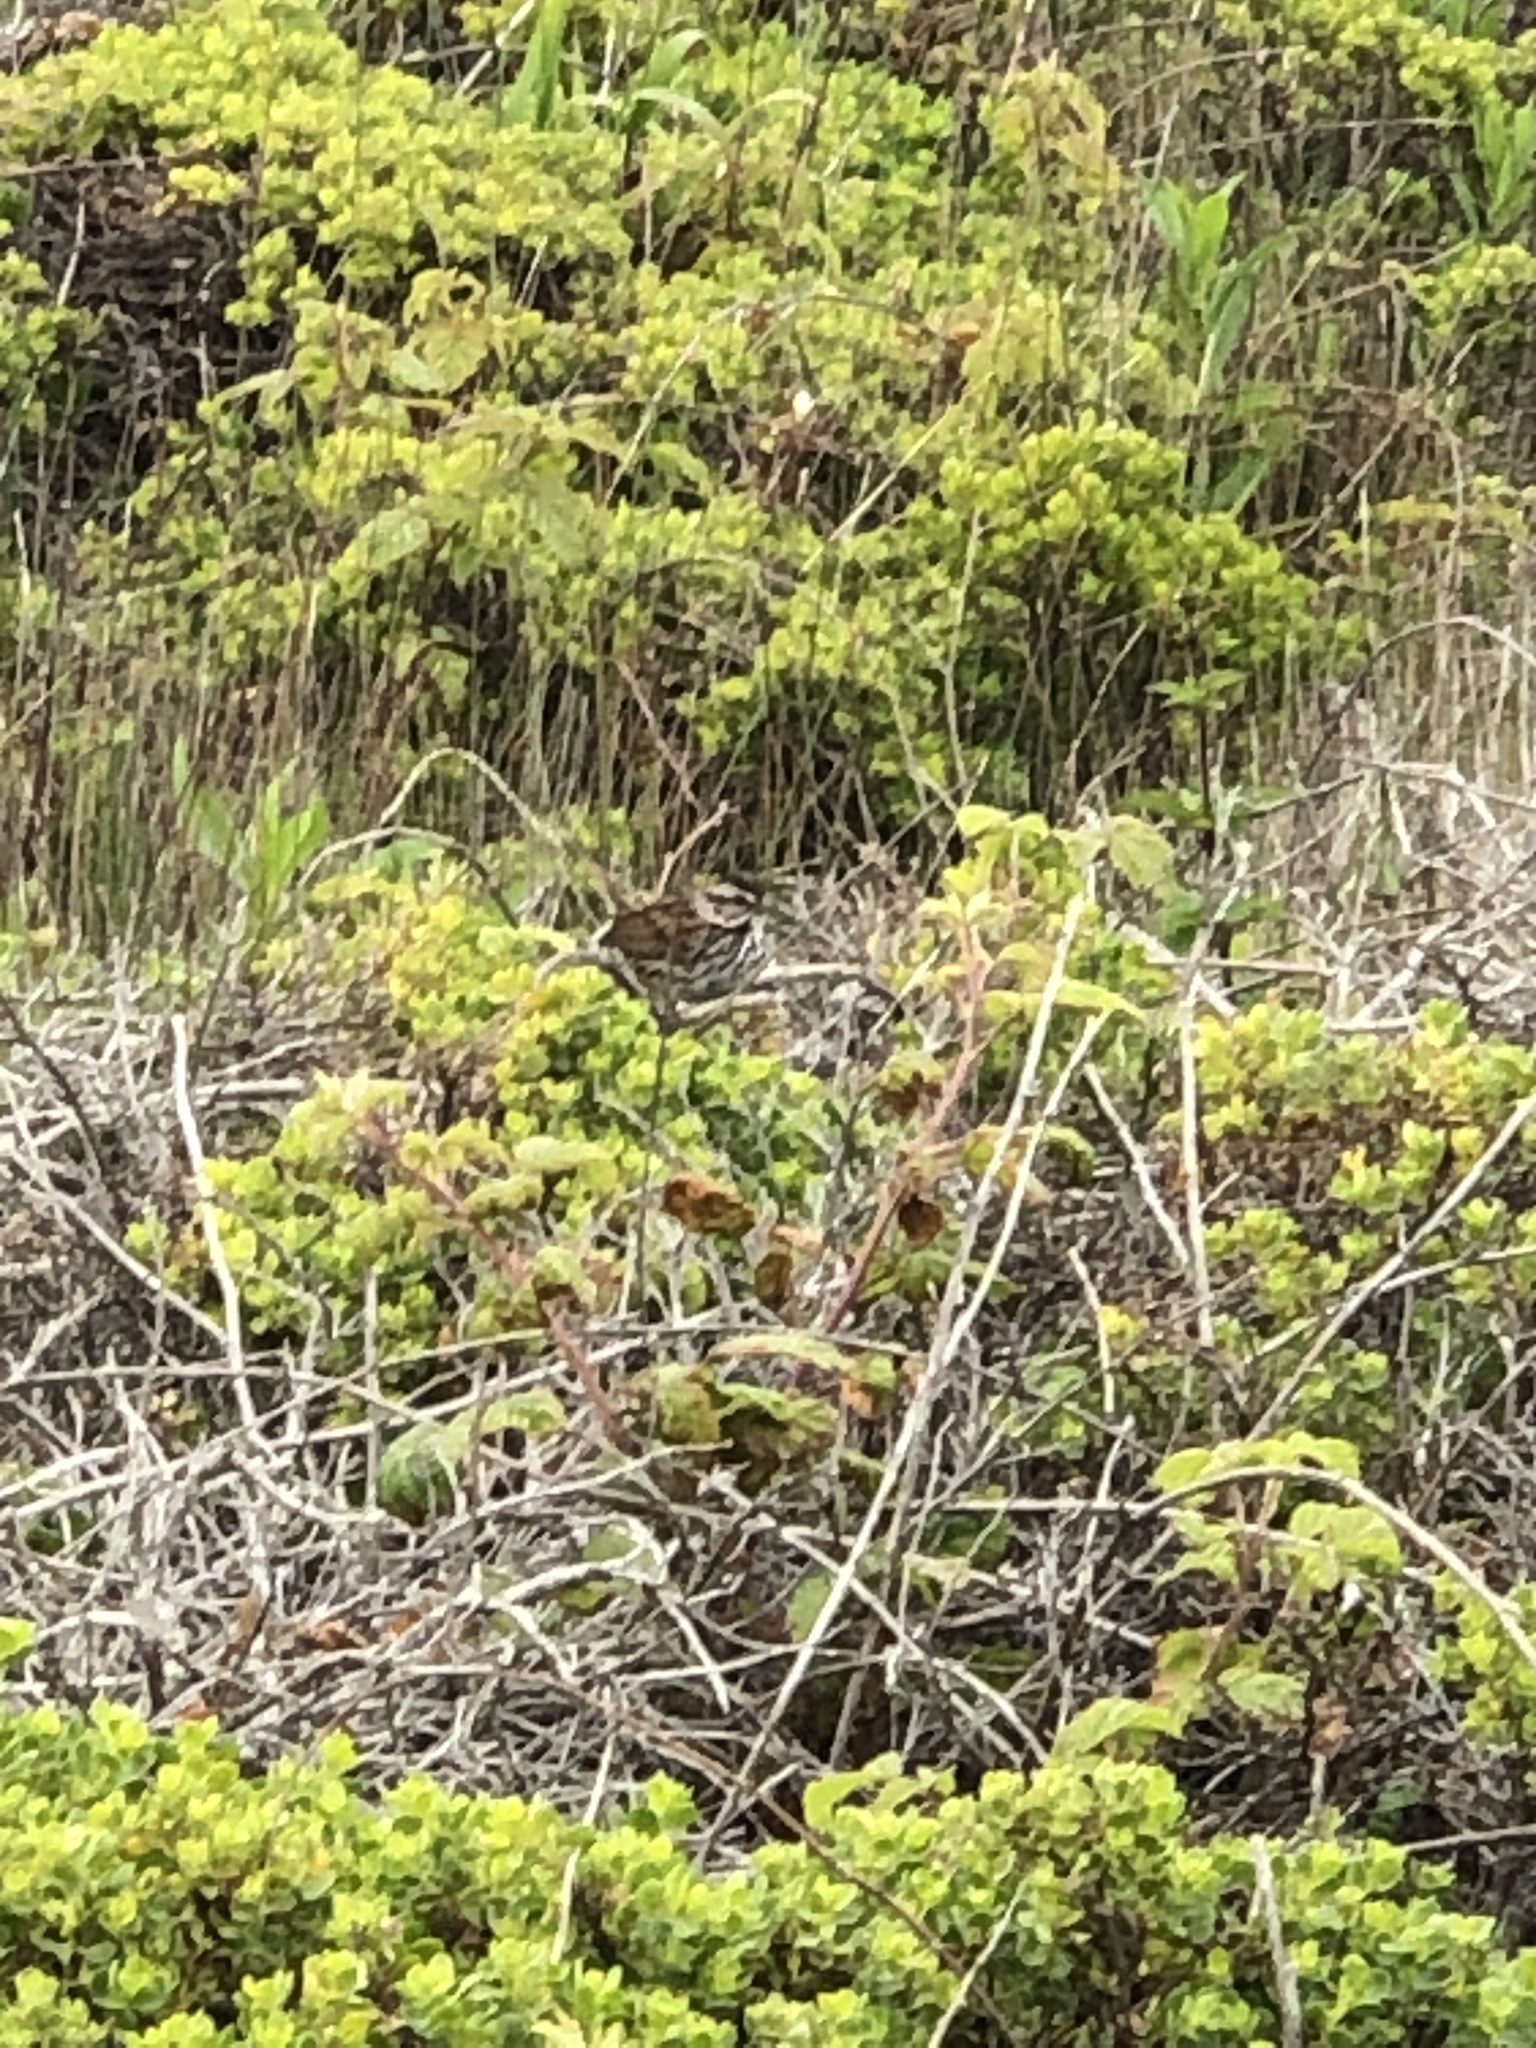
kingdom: Animalia
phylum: Chordata
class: Aves
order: Passeriformes
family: Passerellidae
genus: Melospiza
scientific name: Melospiza melodia
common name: Song sparrow
